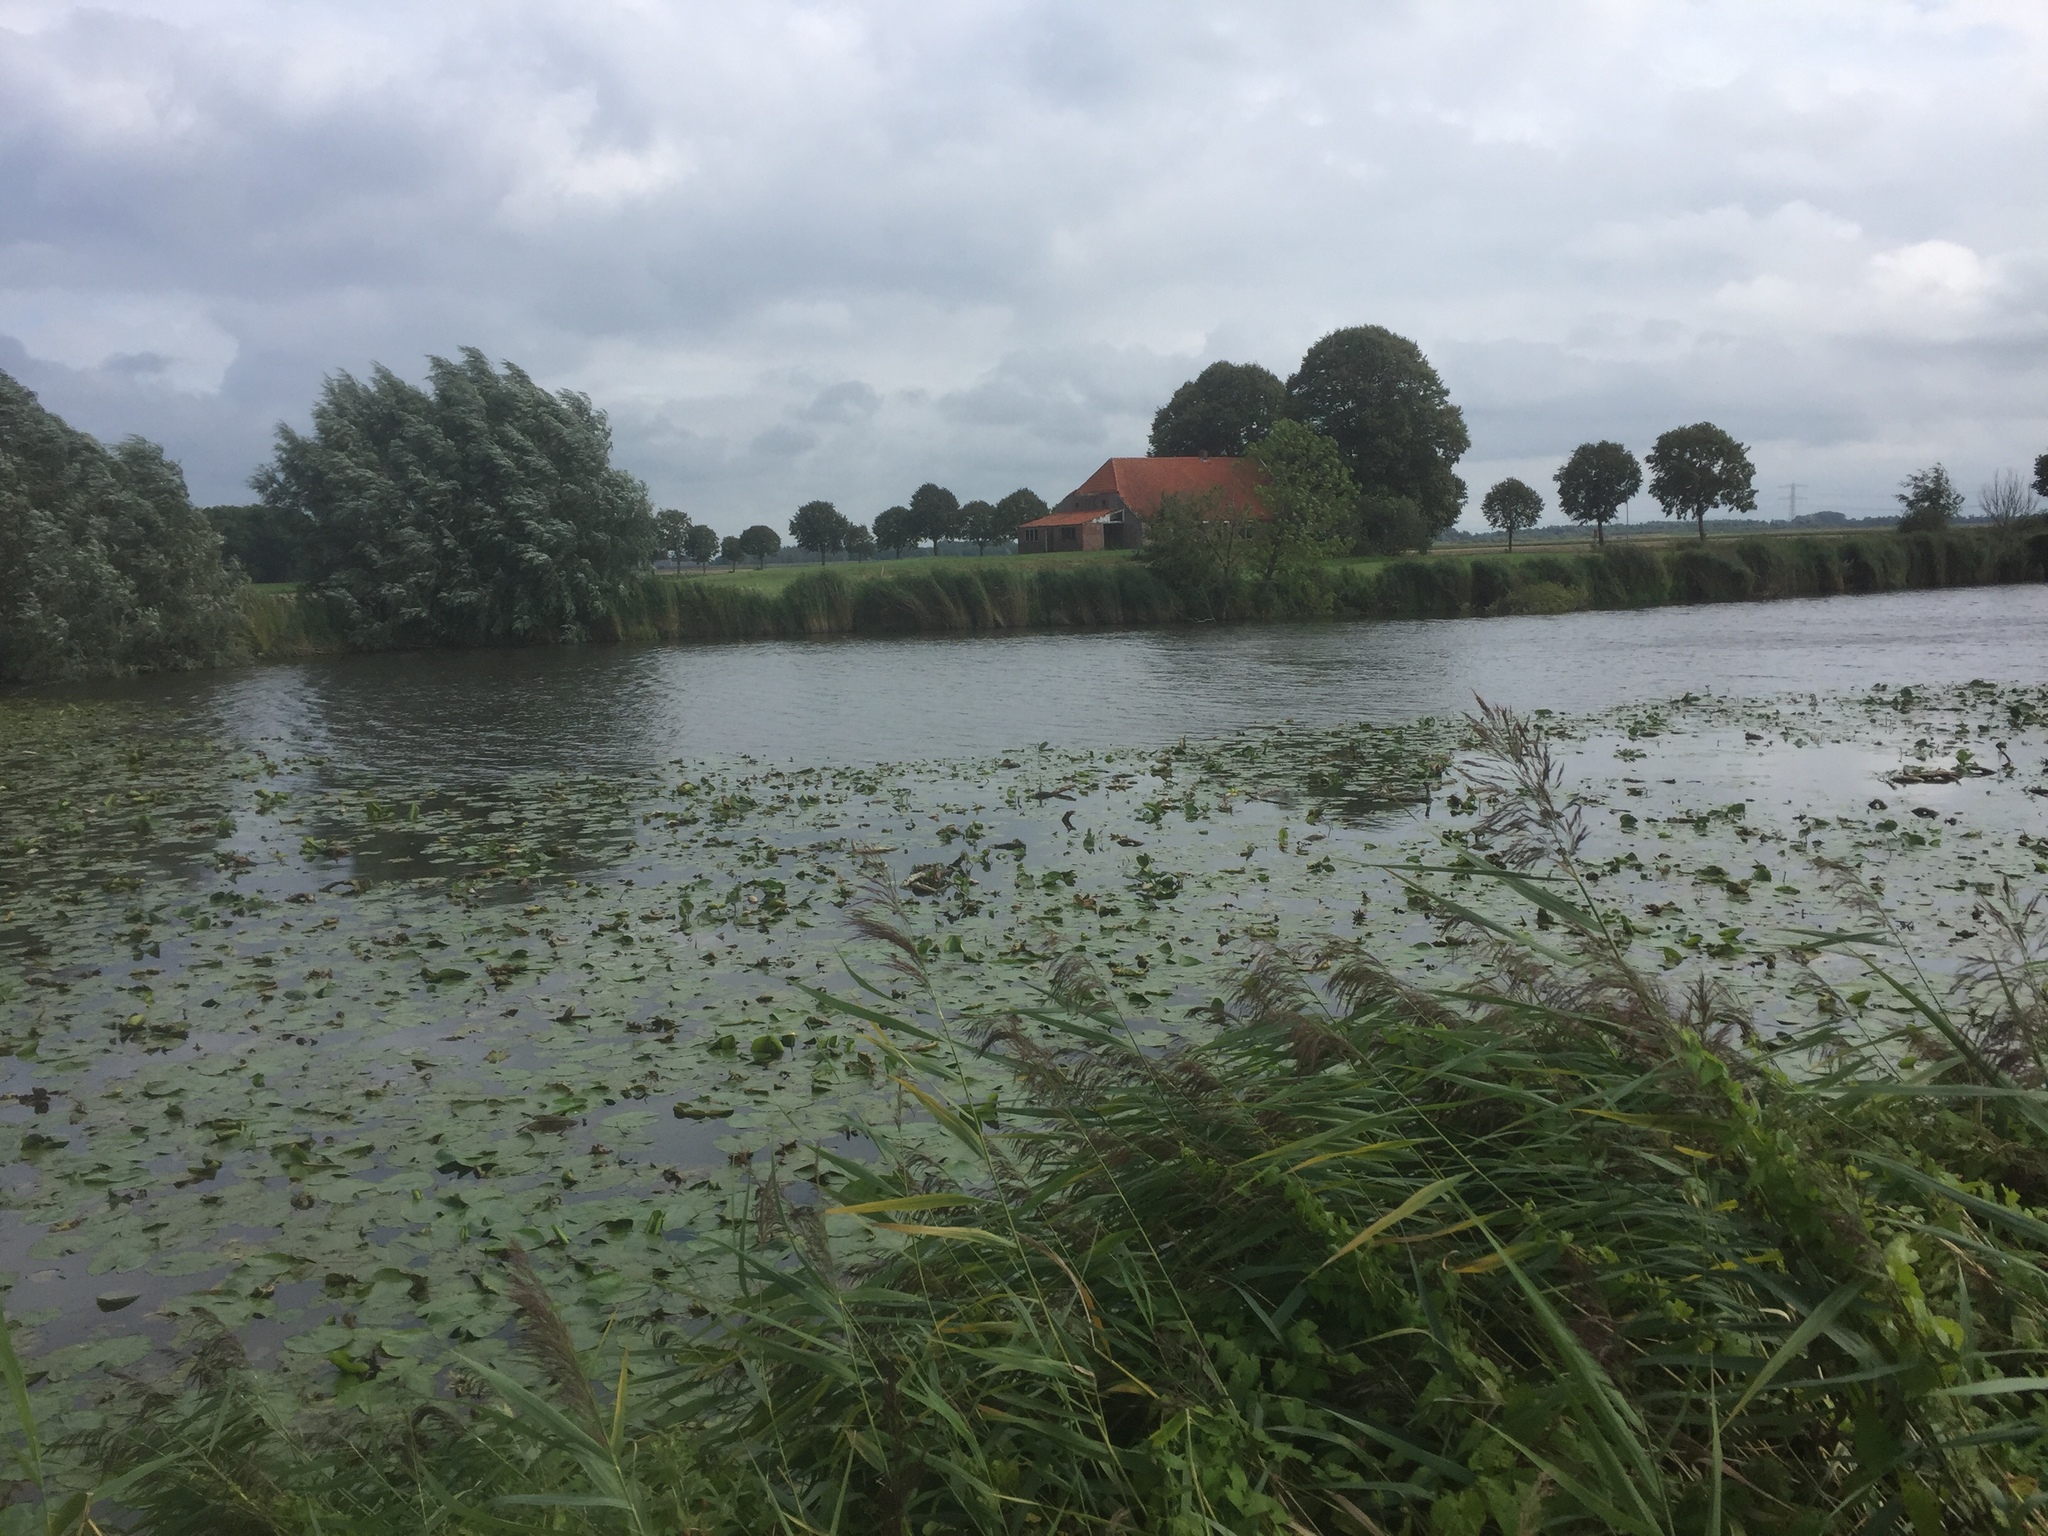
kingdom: Plantae
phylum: Tracheophyta
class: Magnoliopsida
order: Nymphaeales
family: Nymphaeaceae
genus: Nuphar
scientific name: Nuphar lutea
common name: Yellow water-lily
